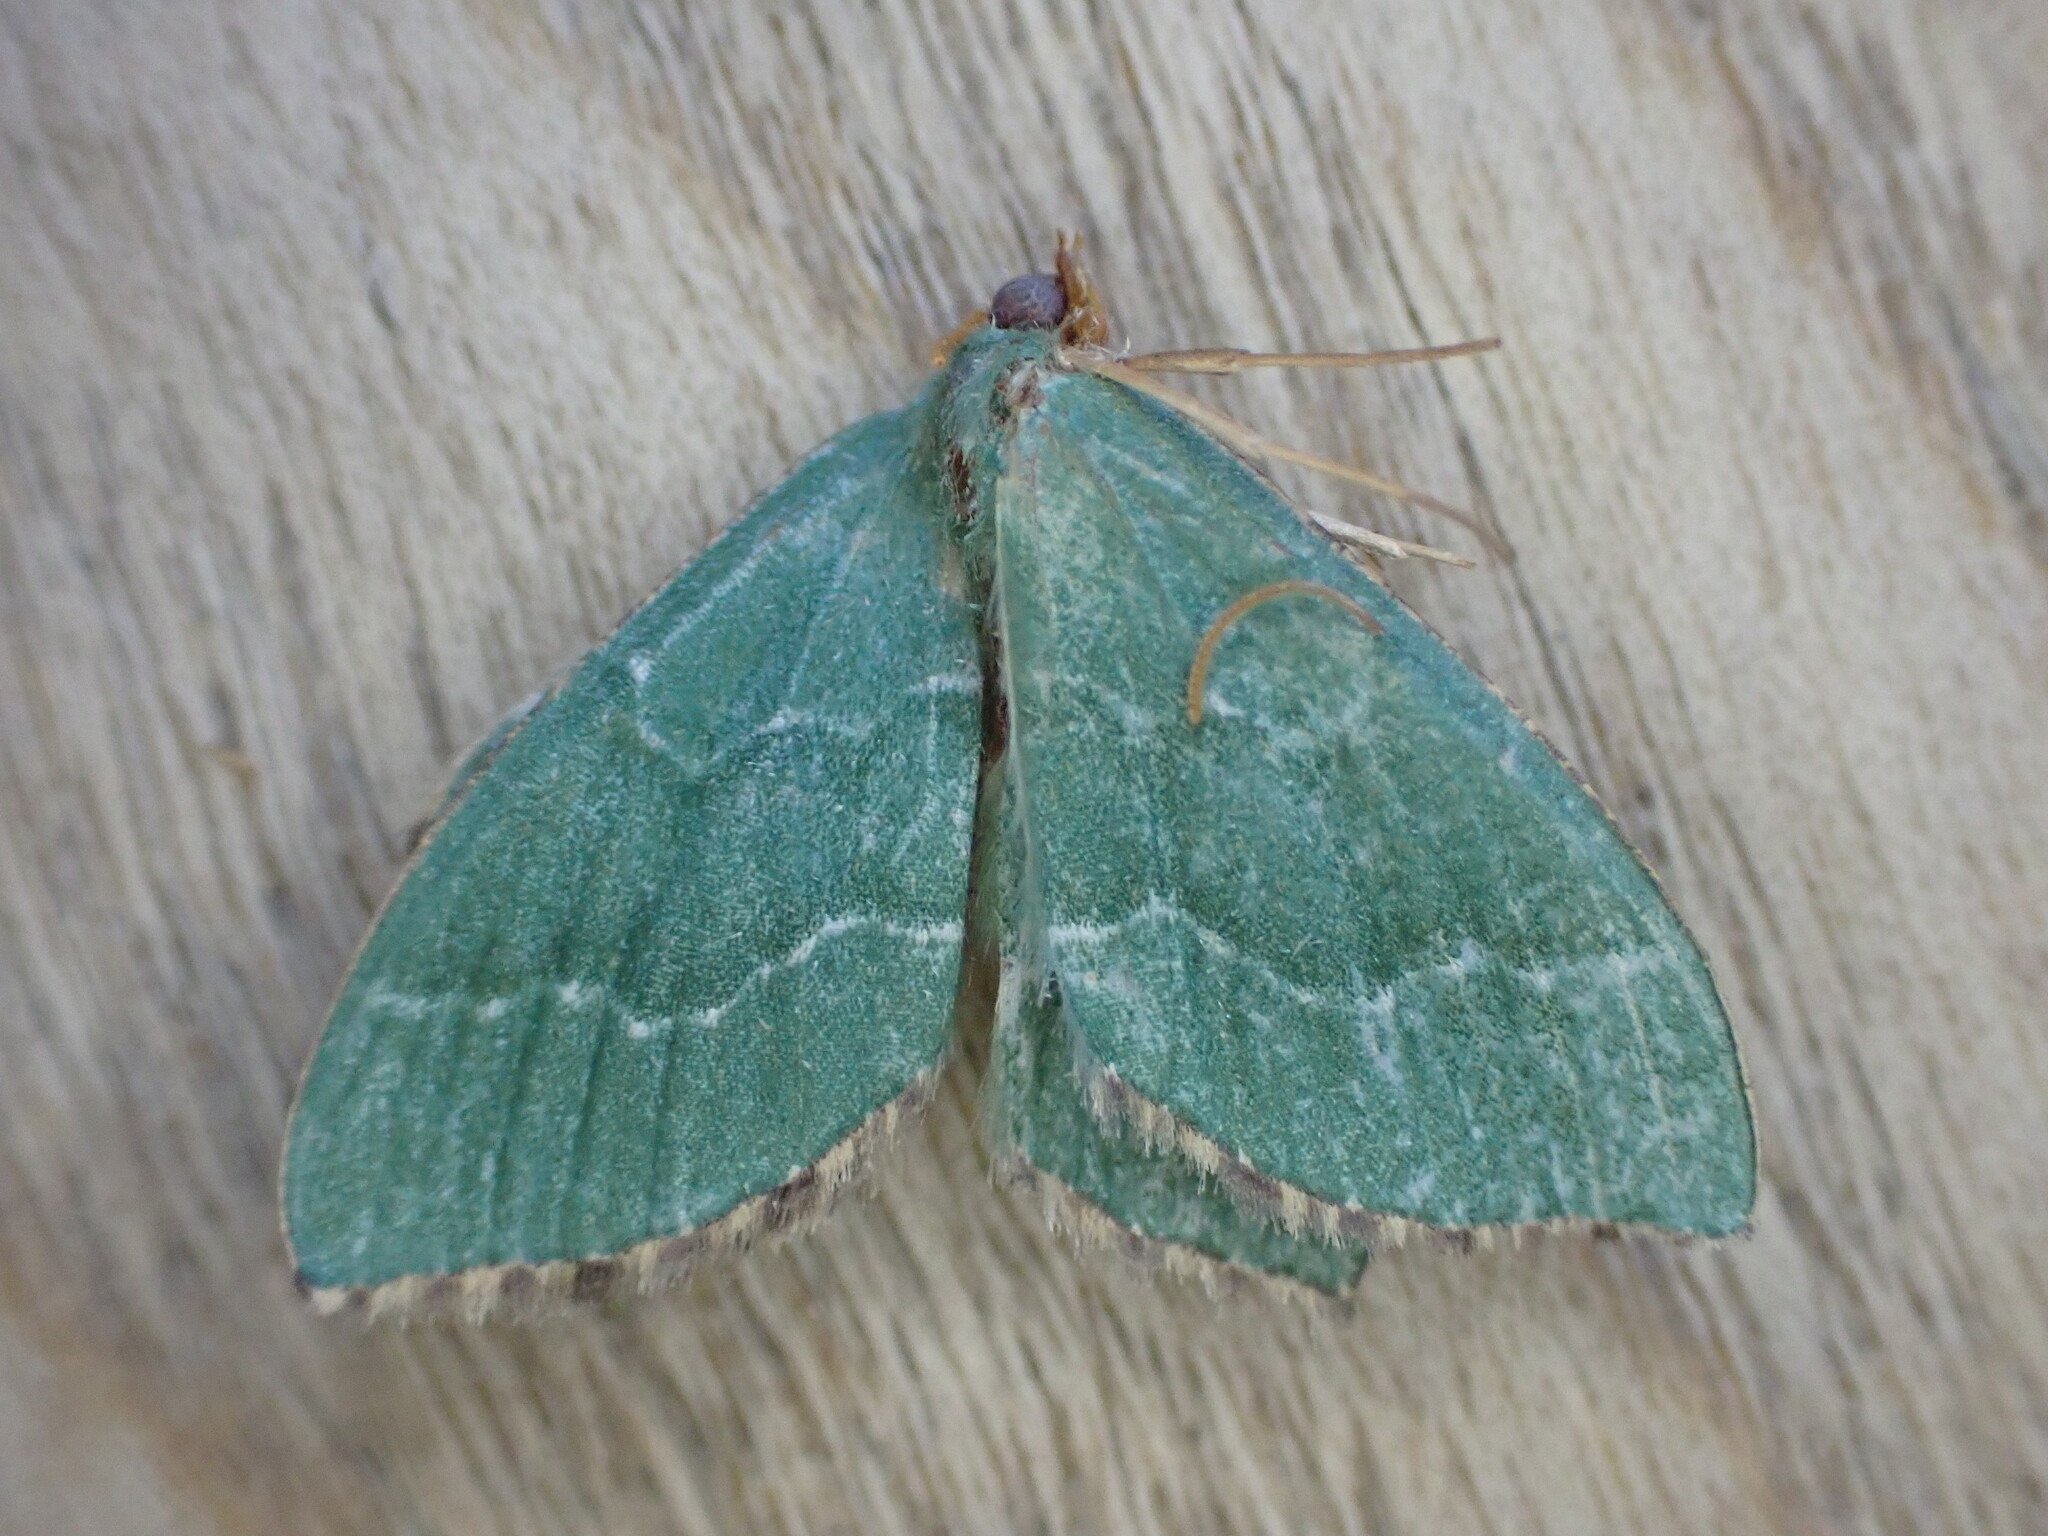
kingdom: Animalia
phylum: Arthropoda
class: Insecta
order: Lepidoptera
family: Geometridae
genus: Hemithea
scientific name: Hemithea aestivaria
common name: Common emerald
